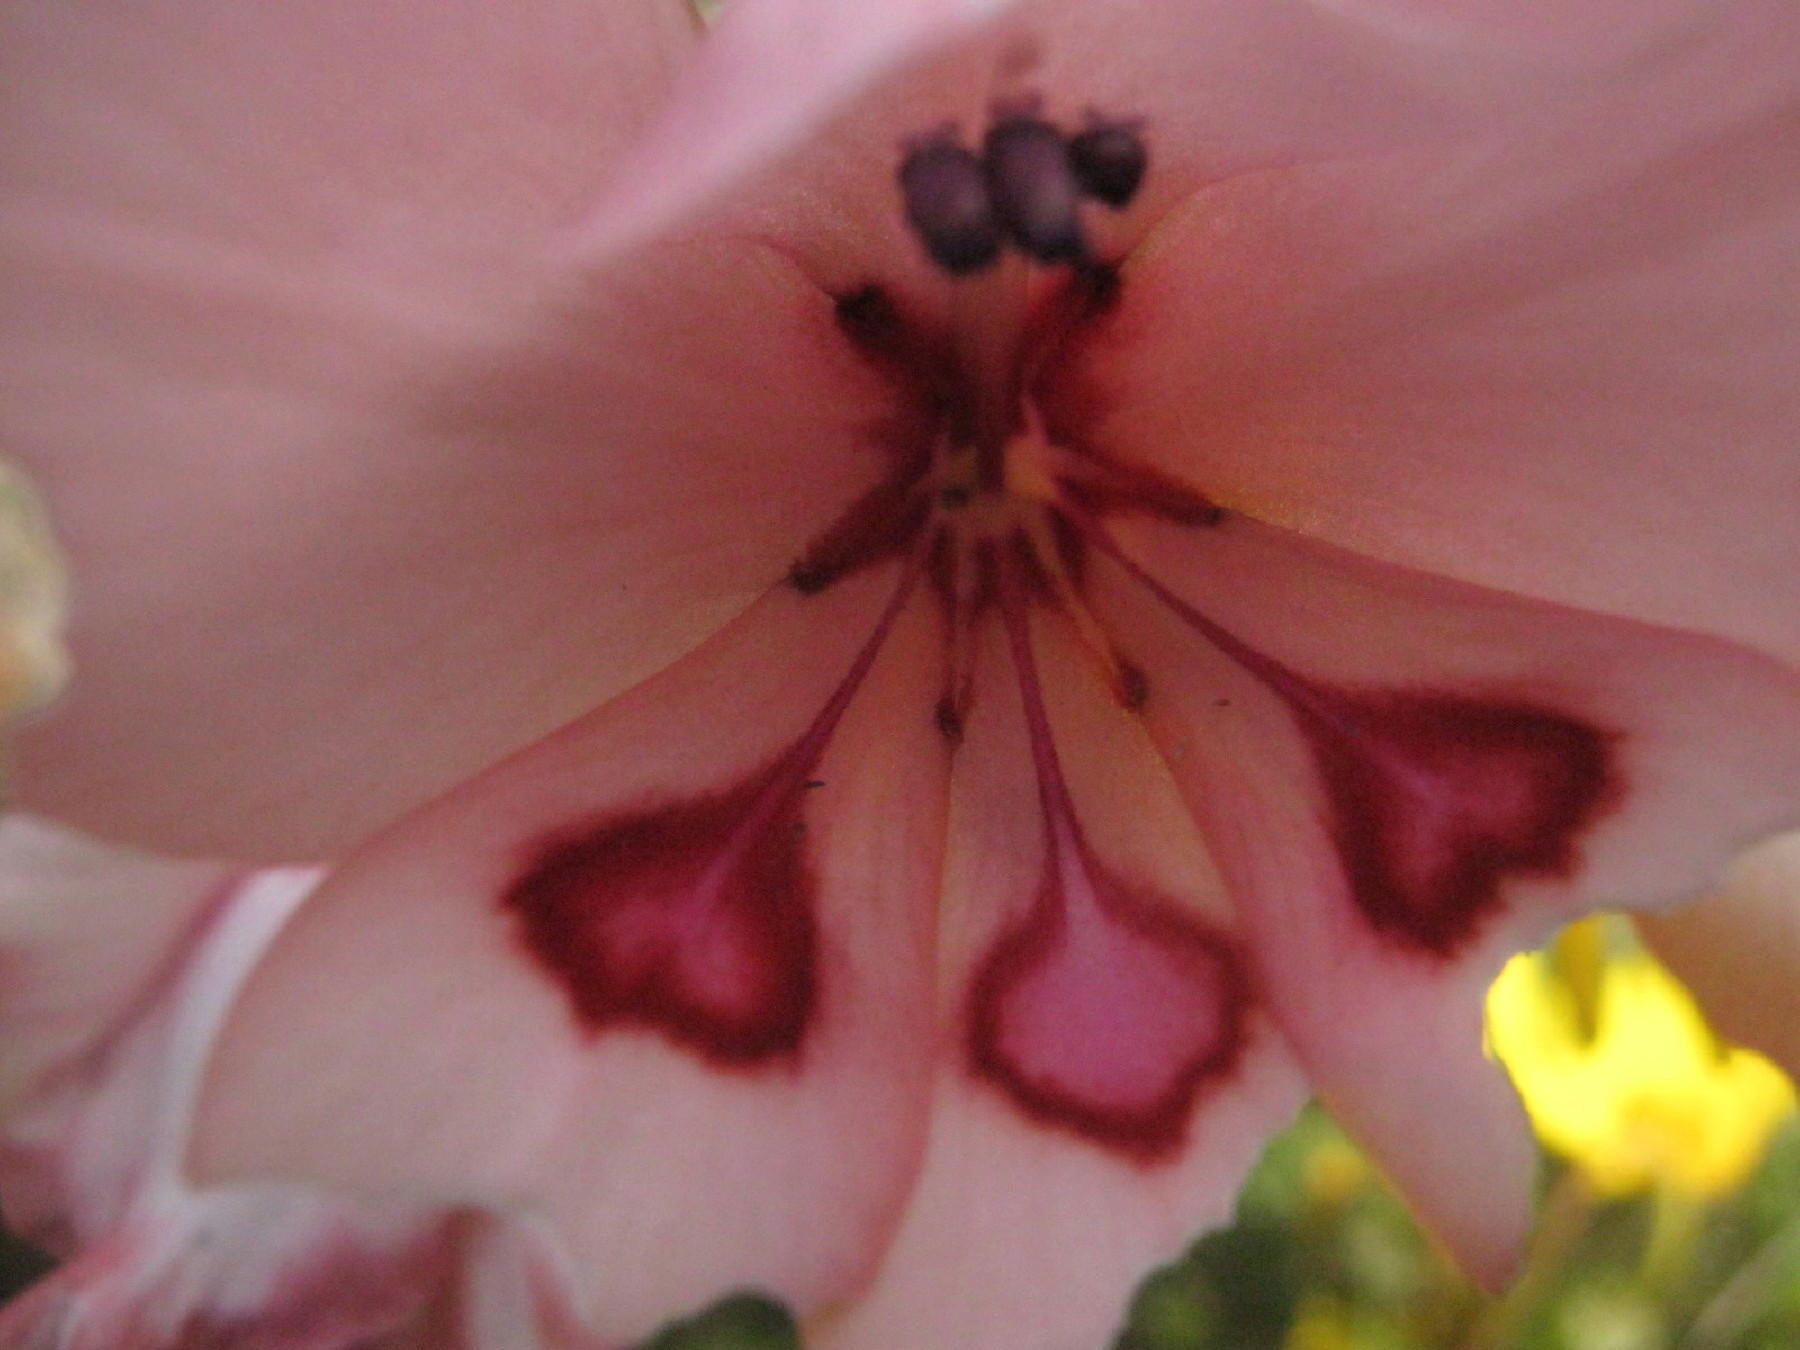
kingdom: Plantae
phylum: Tracheophyta
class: Liliopsida
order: Asparagales
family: Iridaceae
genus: Gladiolus
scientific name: Gladiolus carneus
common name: Painted-lady
